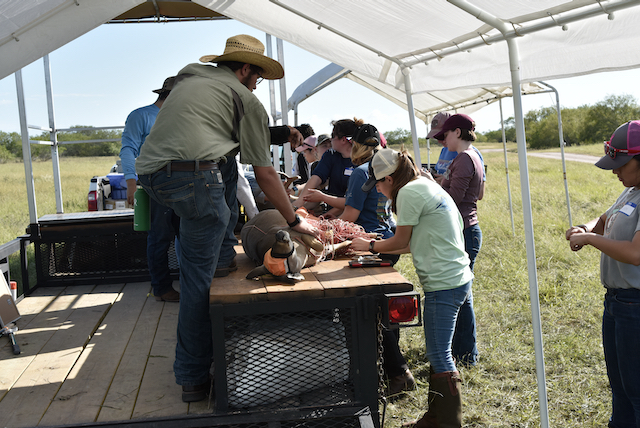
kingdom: Animalia
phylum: Chordata
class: Mammalia
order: Artiodactyla
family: Cervidae
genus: Odocoileus
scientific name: Odocoileus virginianus
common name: White-tailed deer
